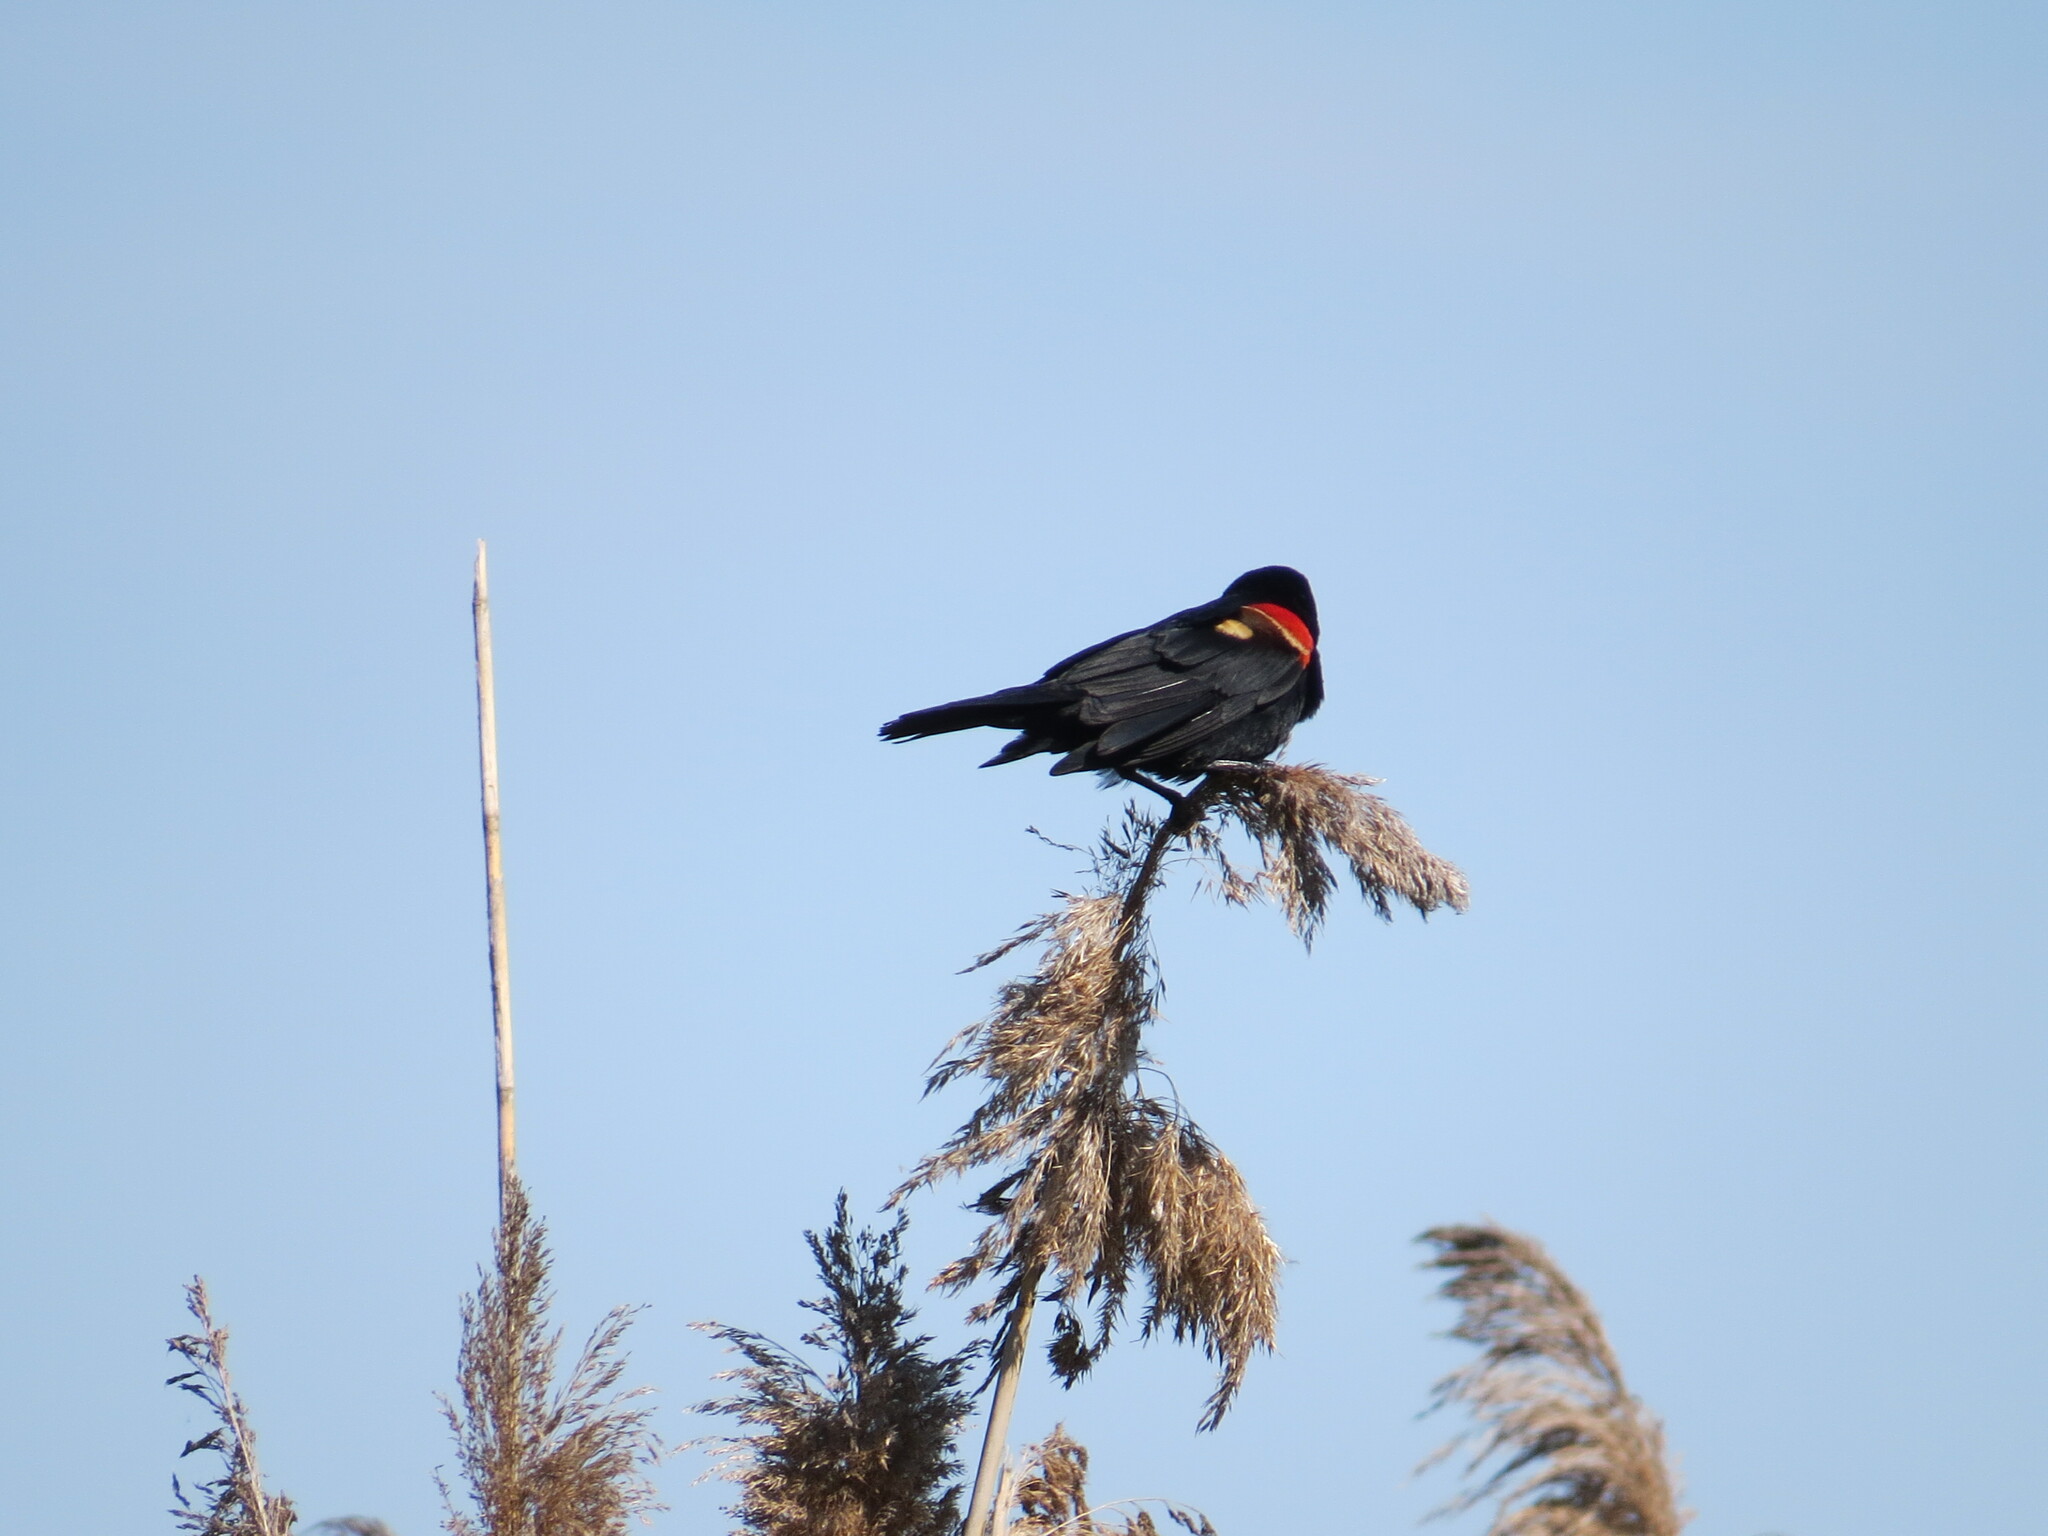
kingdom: Animalia
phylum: Chordata
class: Aves
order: Passeriformes
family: Icteridae
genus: Agelaius
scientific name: Agelaius phoeniceus
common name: Red-winged blackbird
